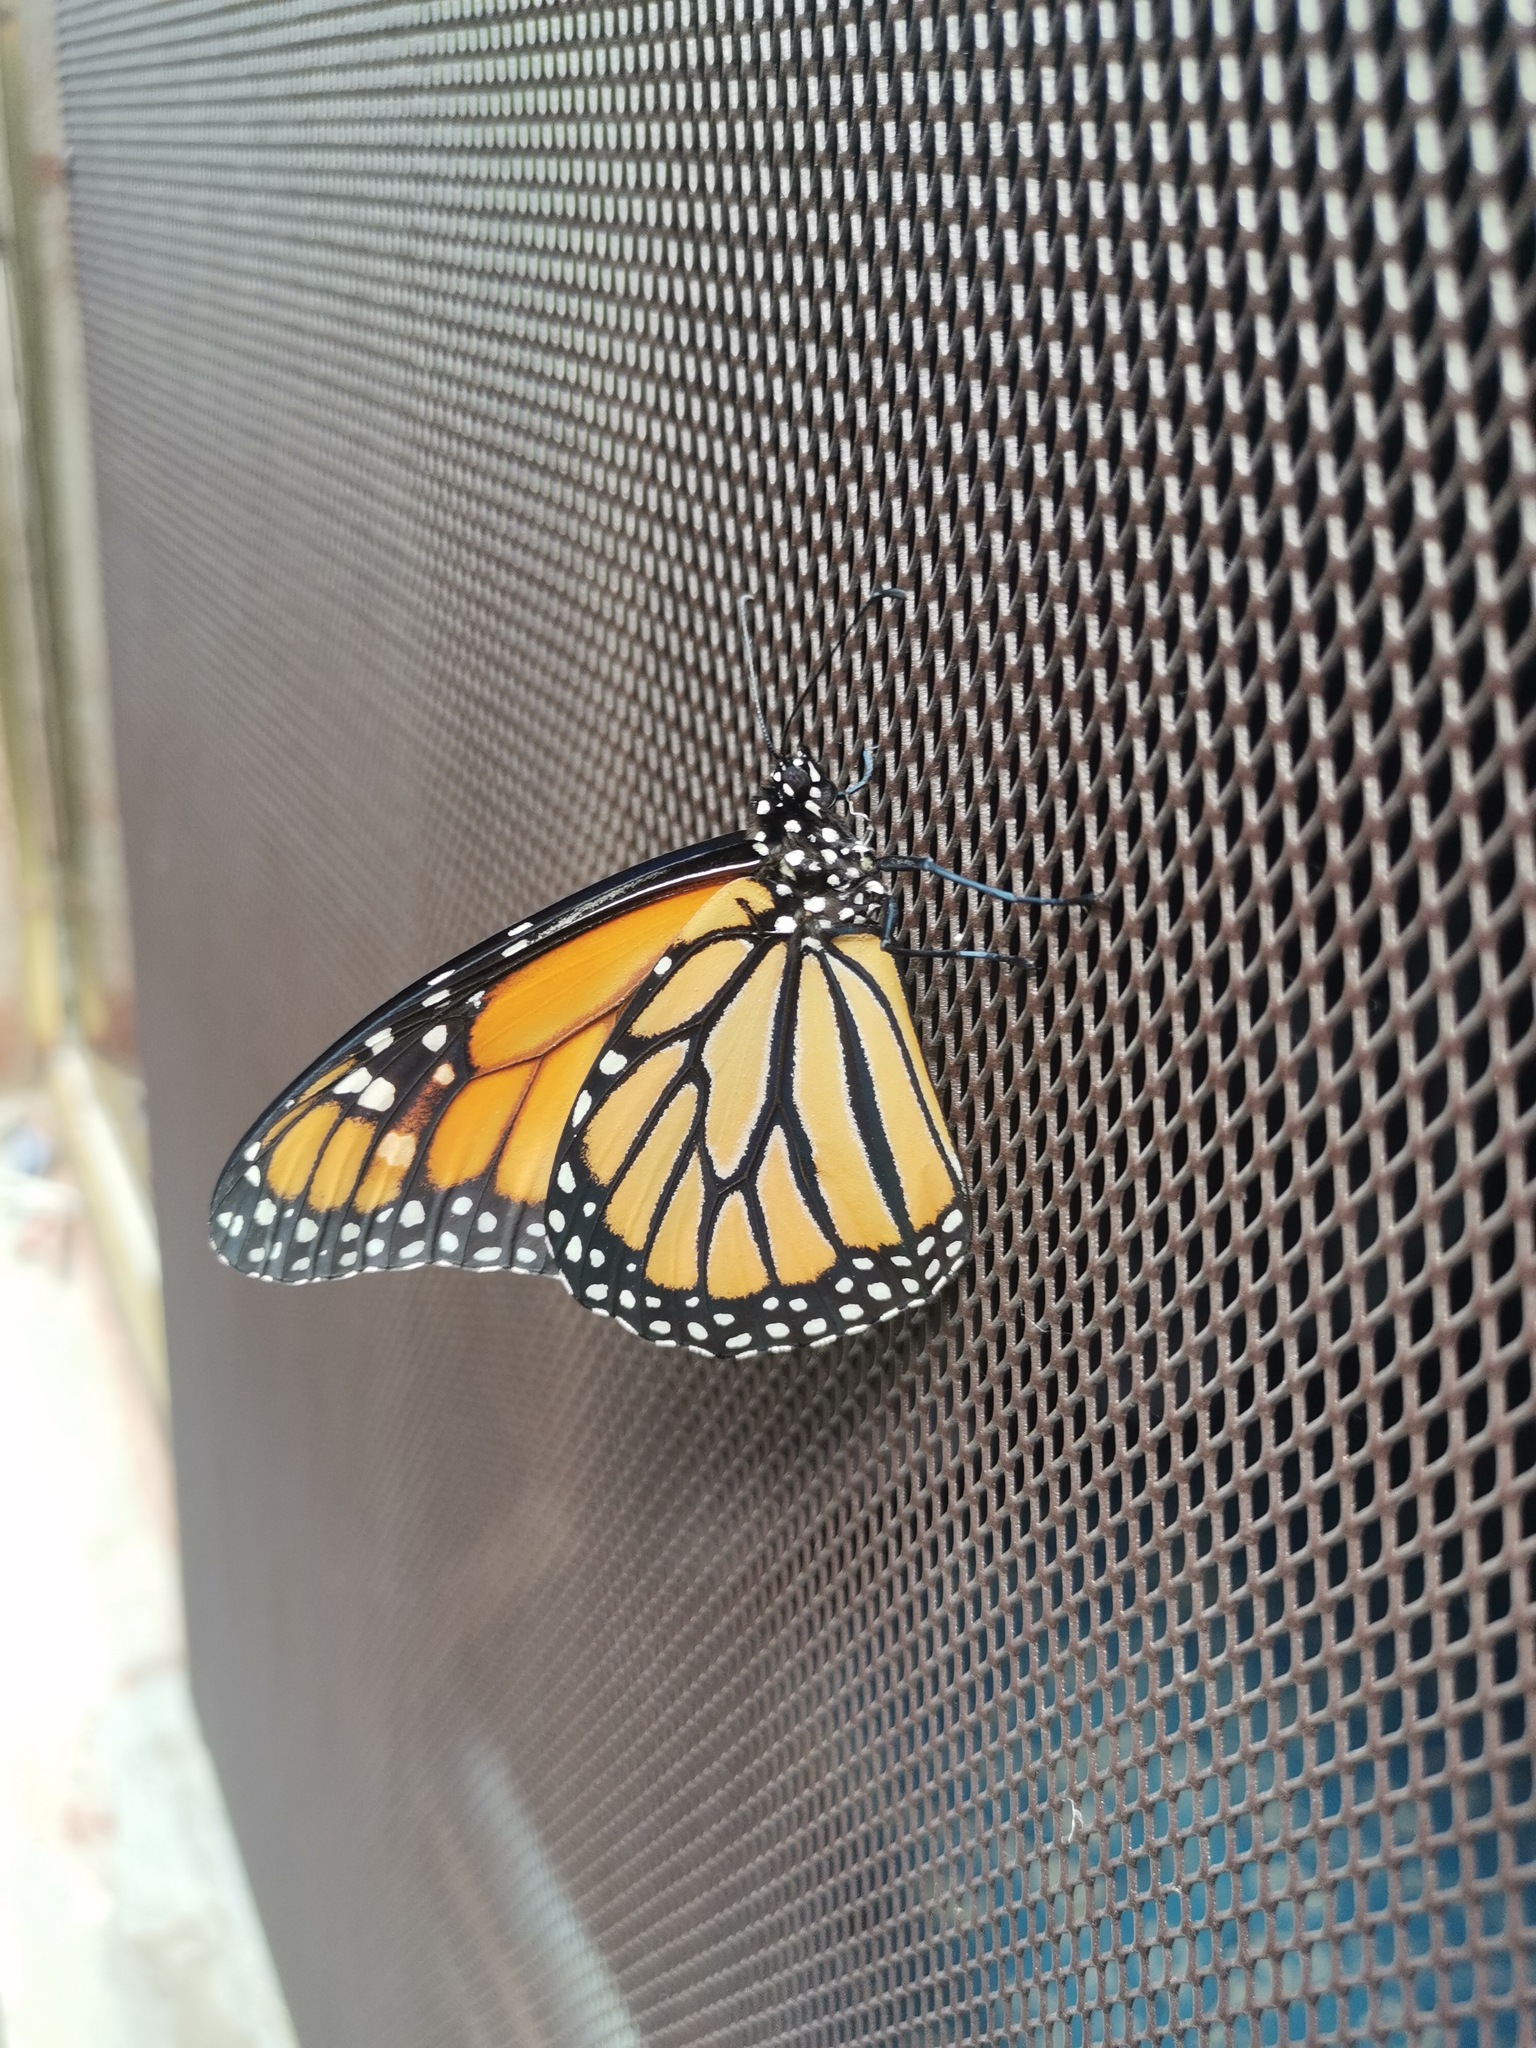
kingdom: Animalia
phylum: Arthropoda
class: Insecta
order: Lepidoptera
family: Nymphalidae
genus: Danaus
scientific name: Danaus plexippus
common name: Monarch
